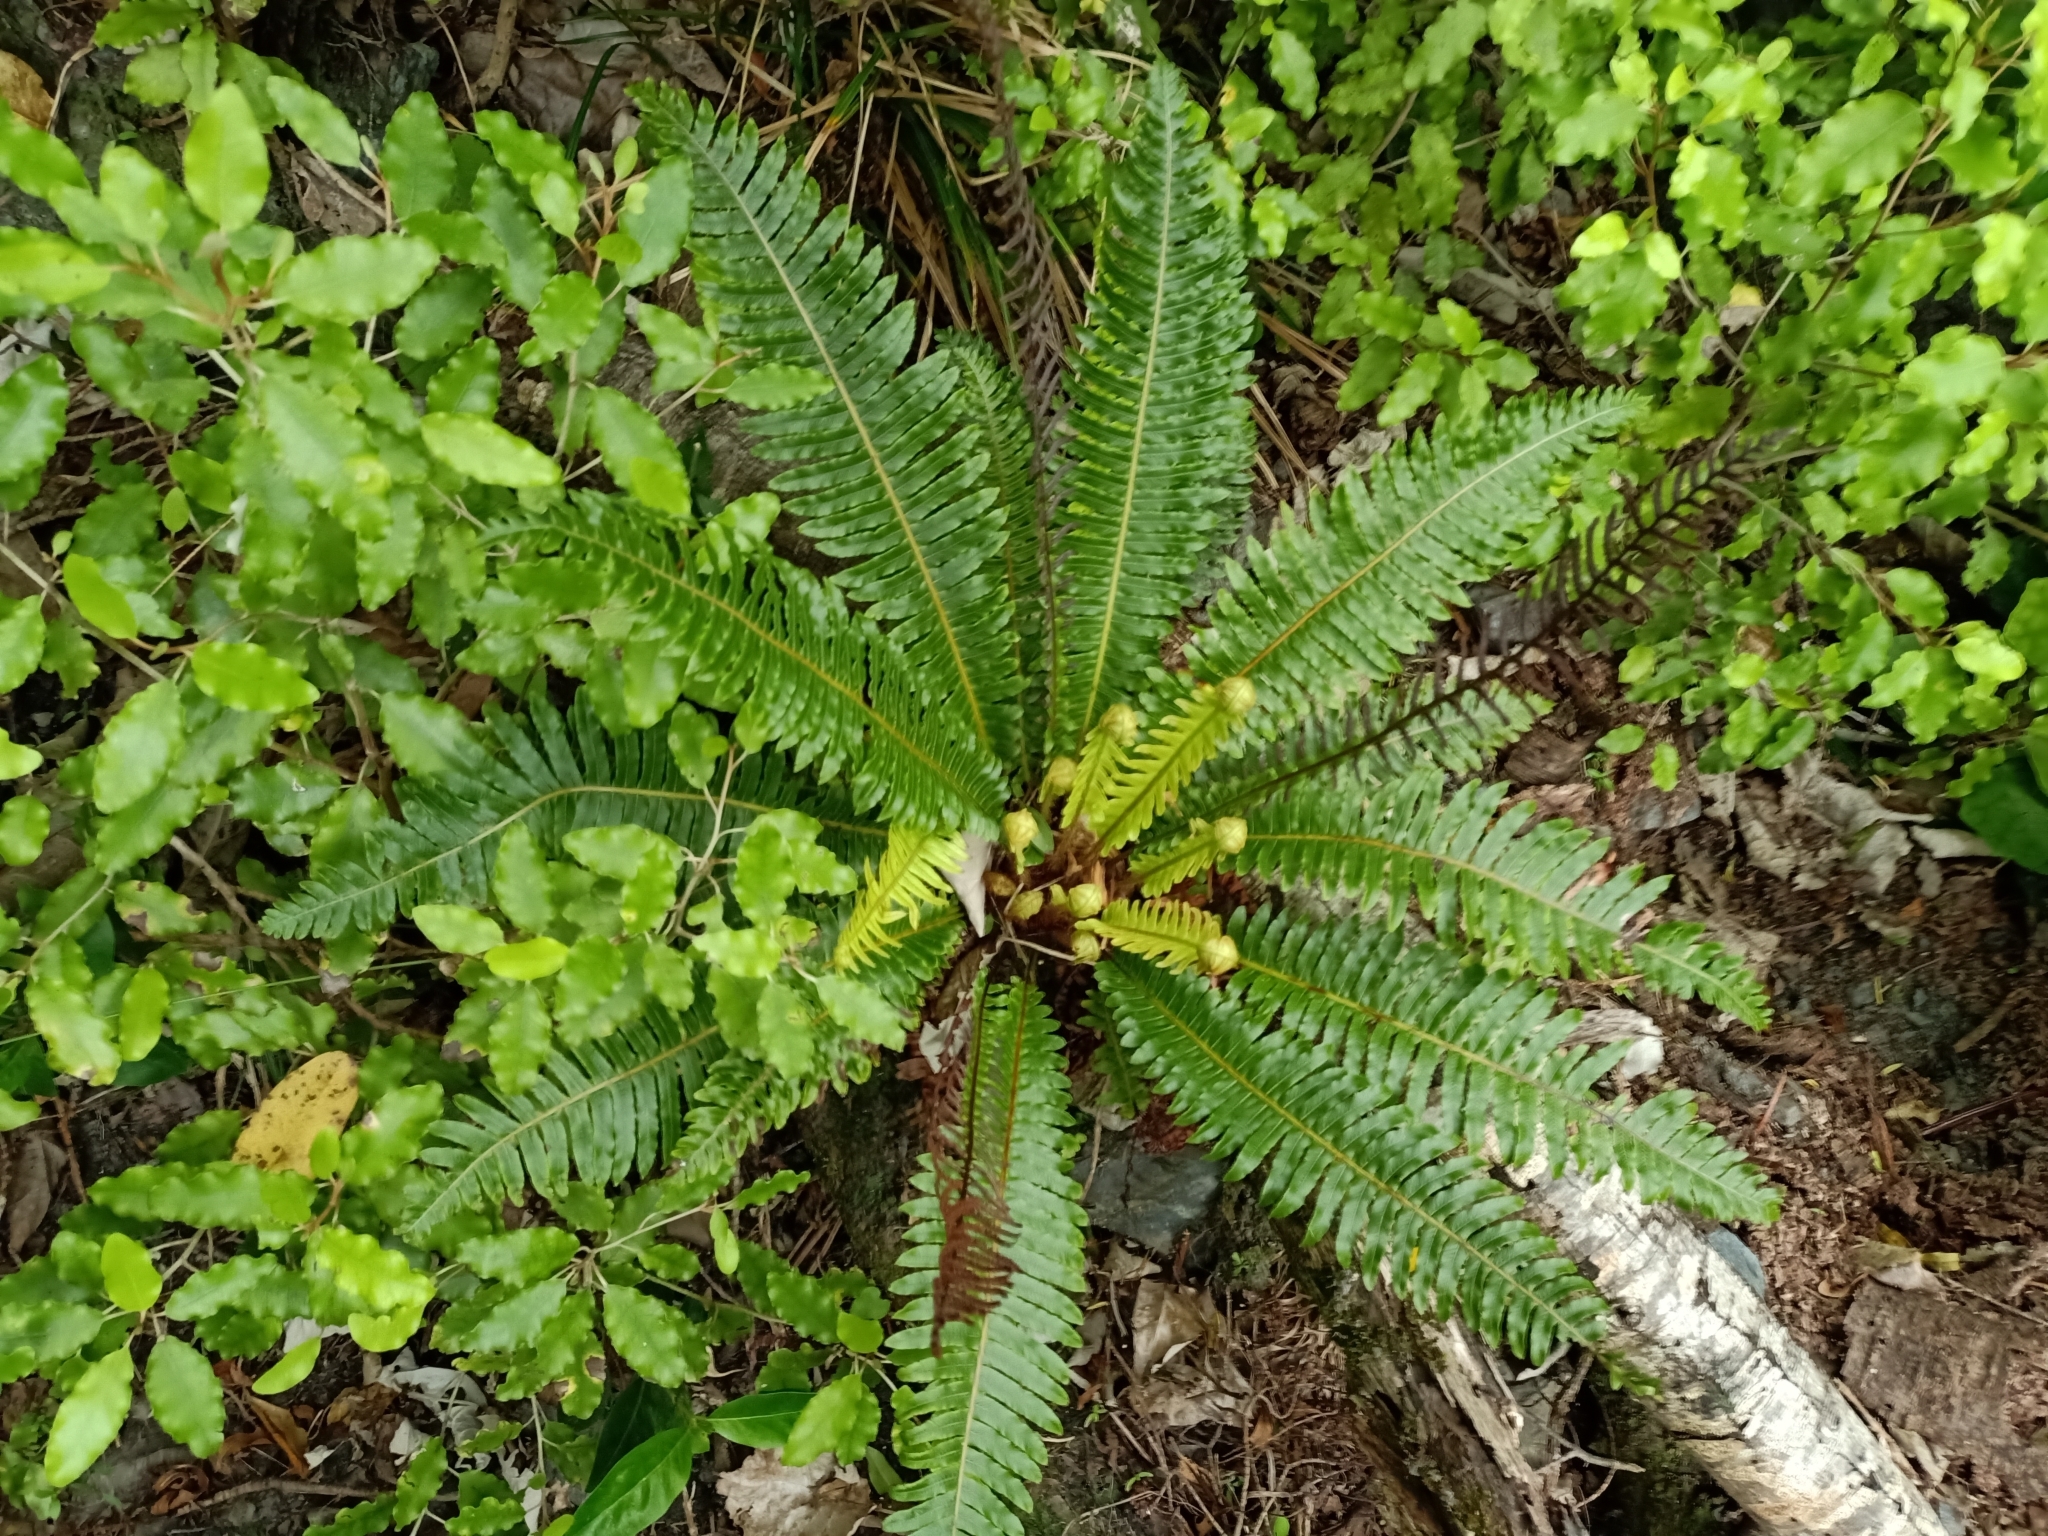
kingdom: Plantae
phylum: Tracheophyta
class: Polypodiopsida
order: Polypodiales
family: Blechnaceae
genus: Lomaria
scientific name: Lomaria discolor
